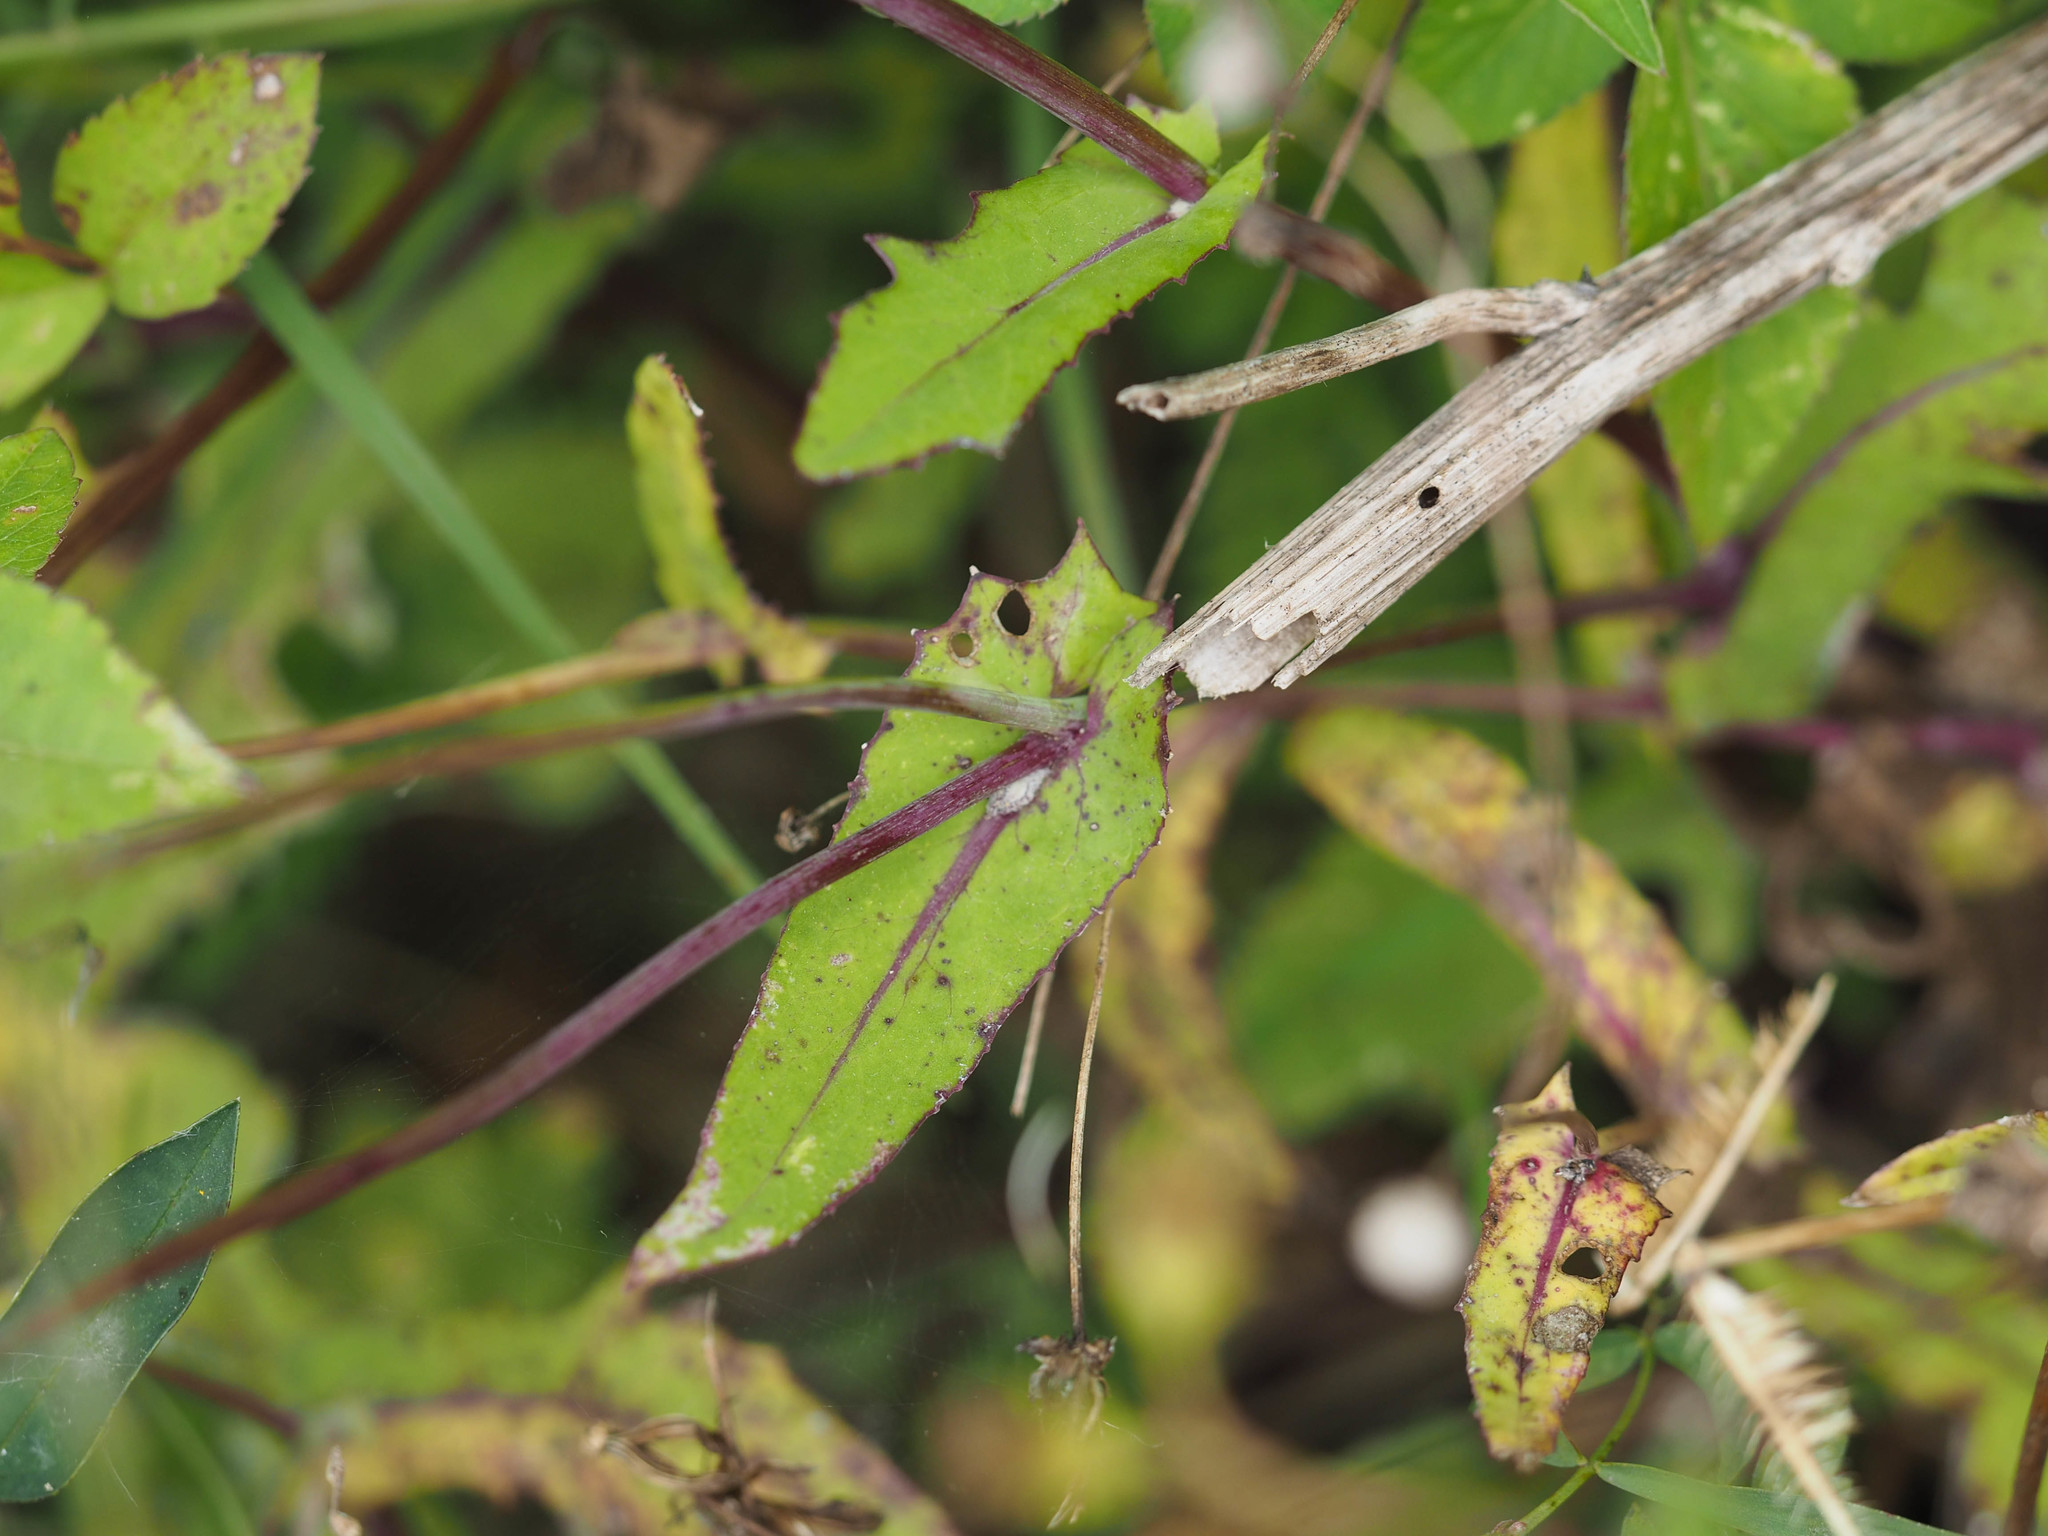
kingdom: Plantae
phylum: Tracheophyta
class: Magnoliopsida
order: Asterales
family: Asteraceae
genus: Emilia
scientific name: Emilia sonchifolia
